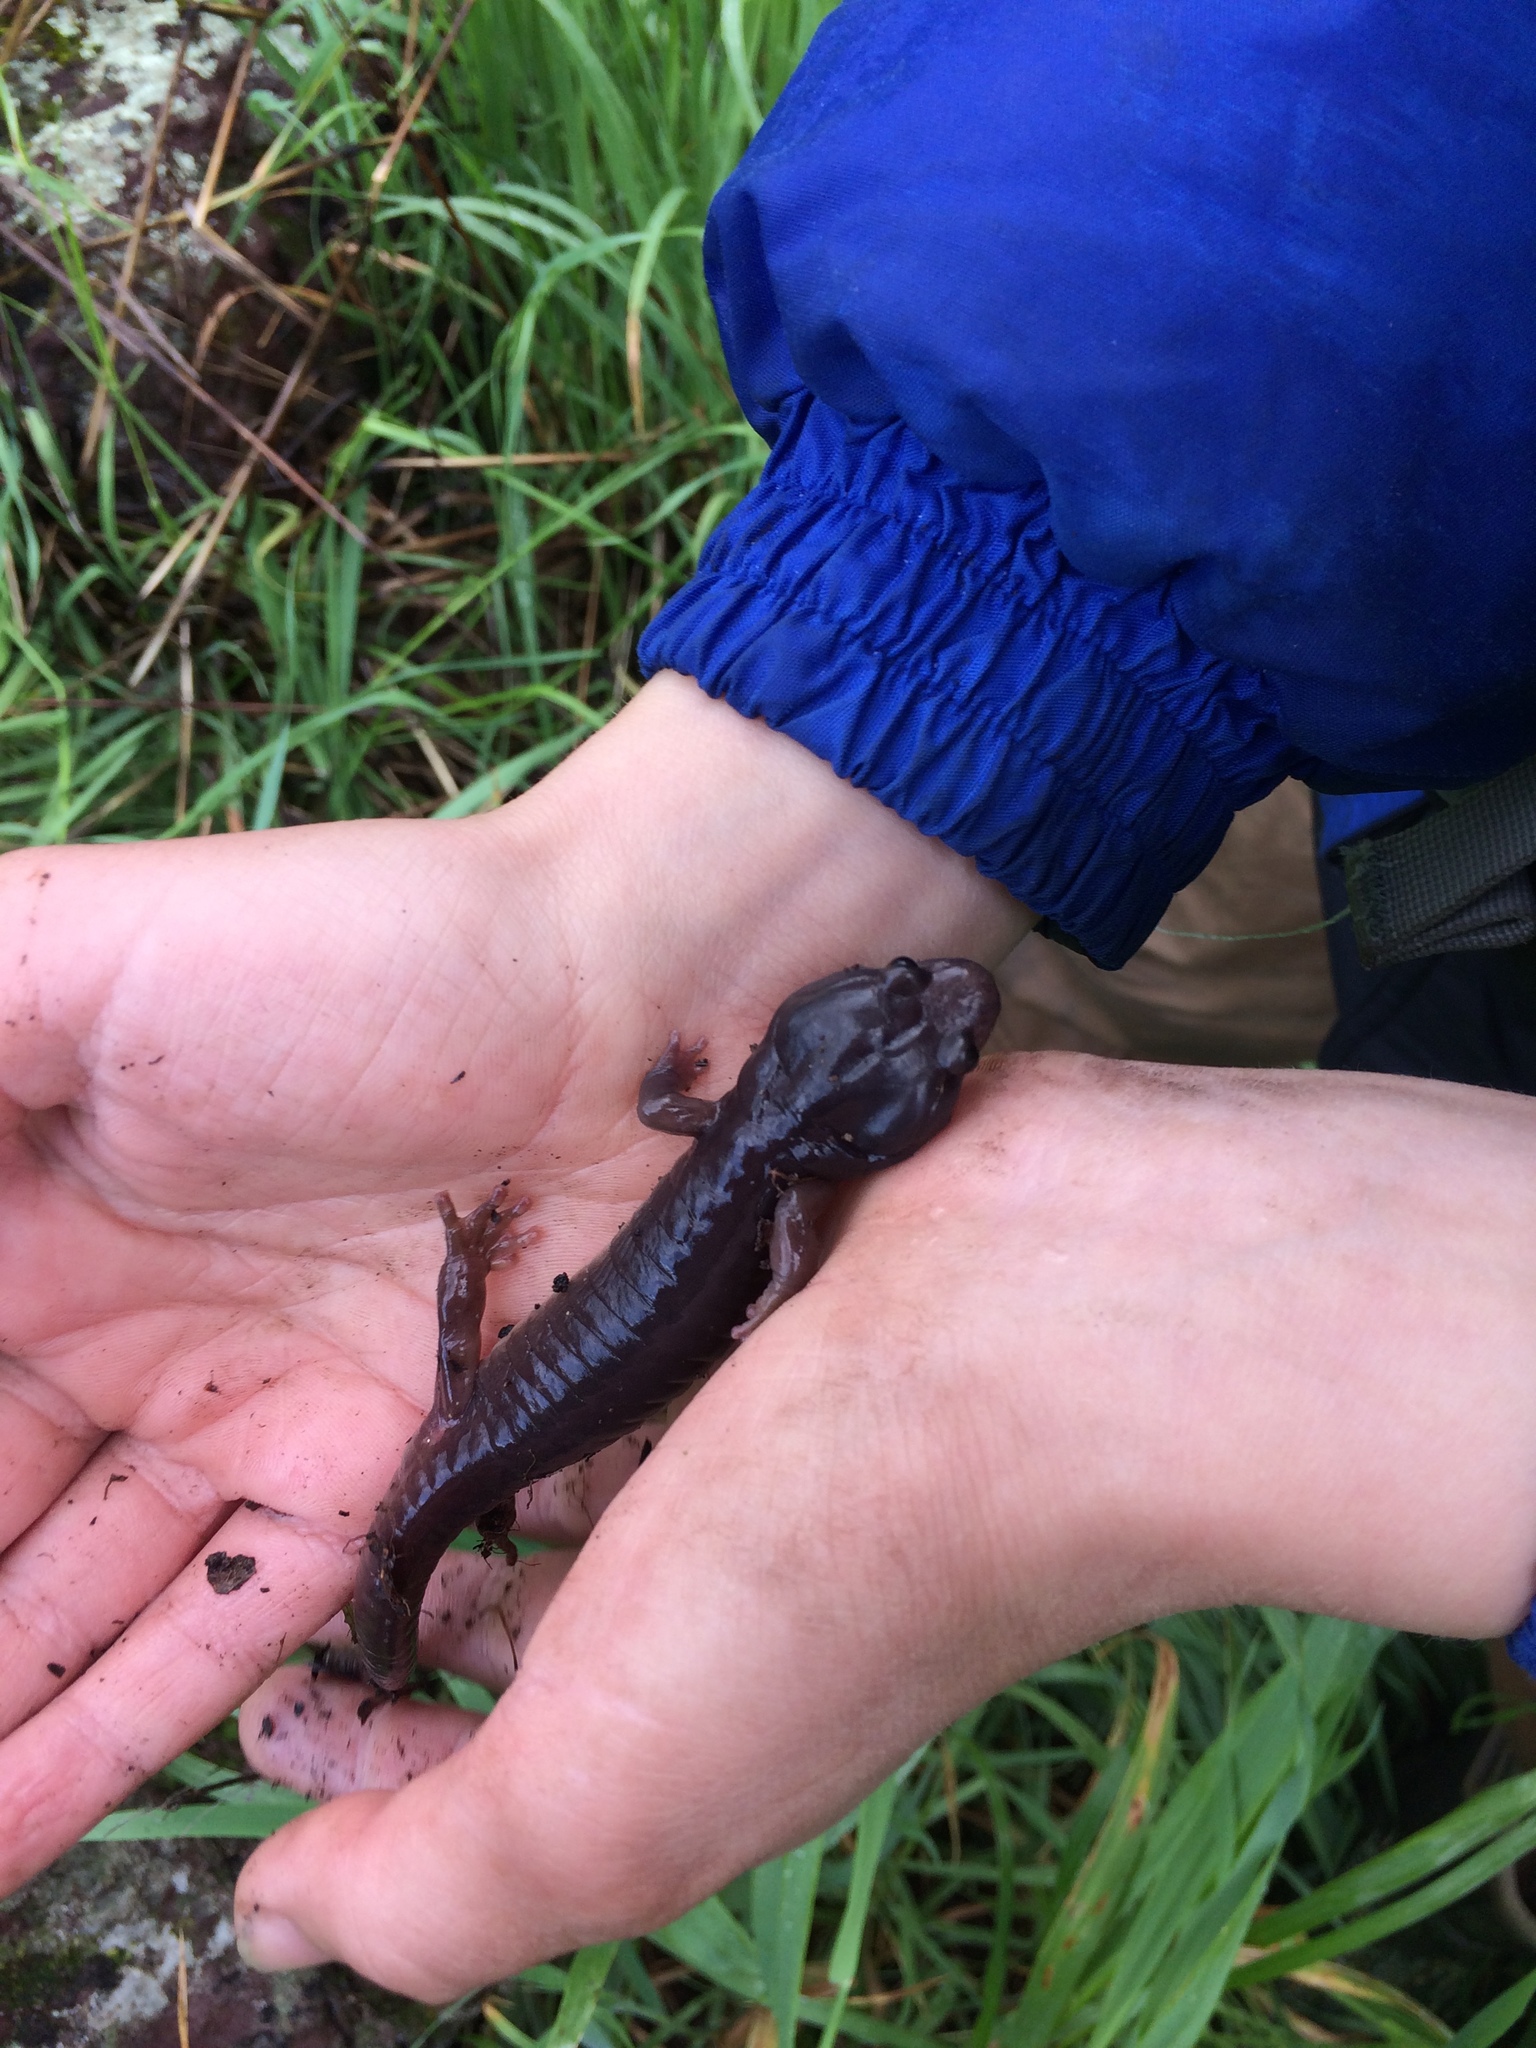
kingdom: Animalia
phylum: Chordata
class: Amphibia
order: Caudata
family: Plethodontidae
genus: Aneides
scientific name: Aneides lugubris
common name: Arboreal salamander
